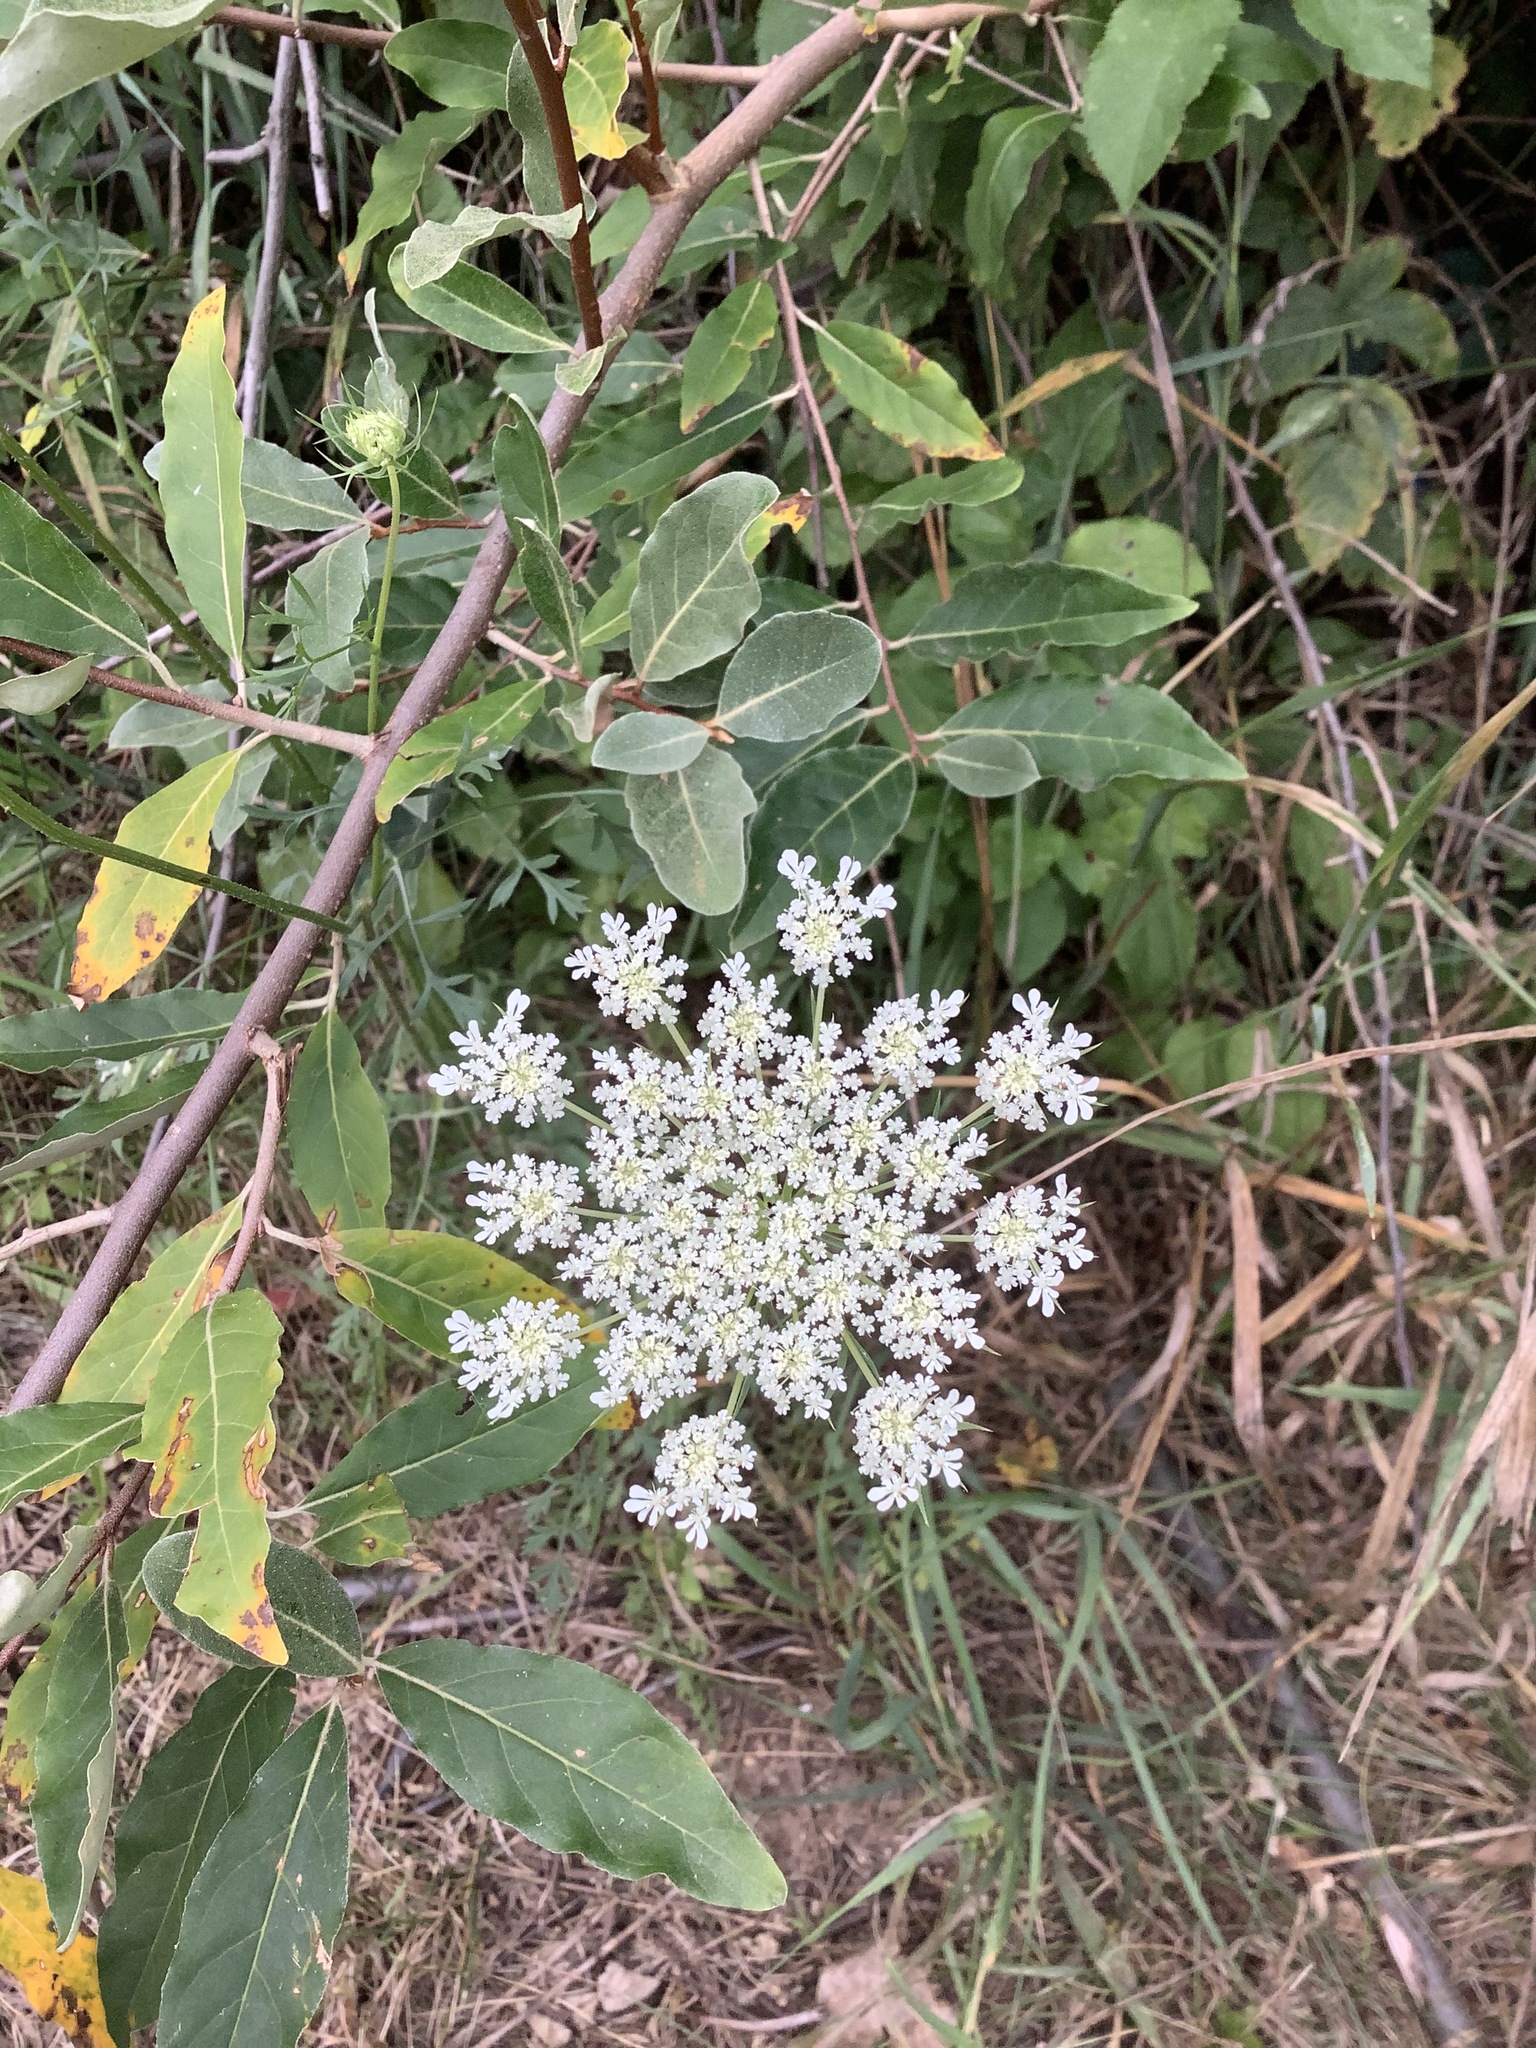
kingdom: Plantae
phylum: Tracheophyta
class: Magnoliopsida
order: Apiales
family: Apiaceae
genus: Daucus
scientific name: Daucus carota
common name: Wild carrot
